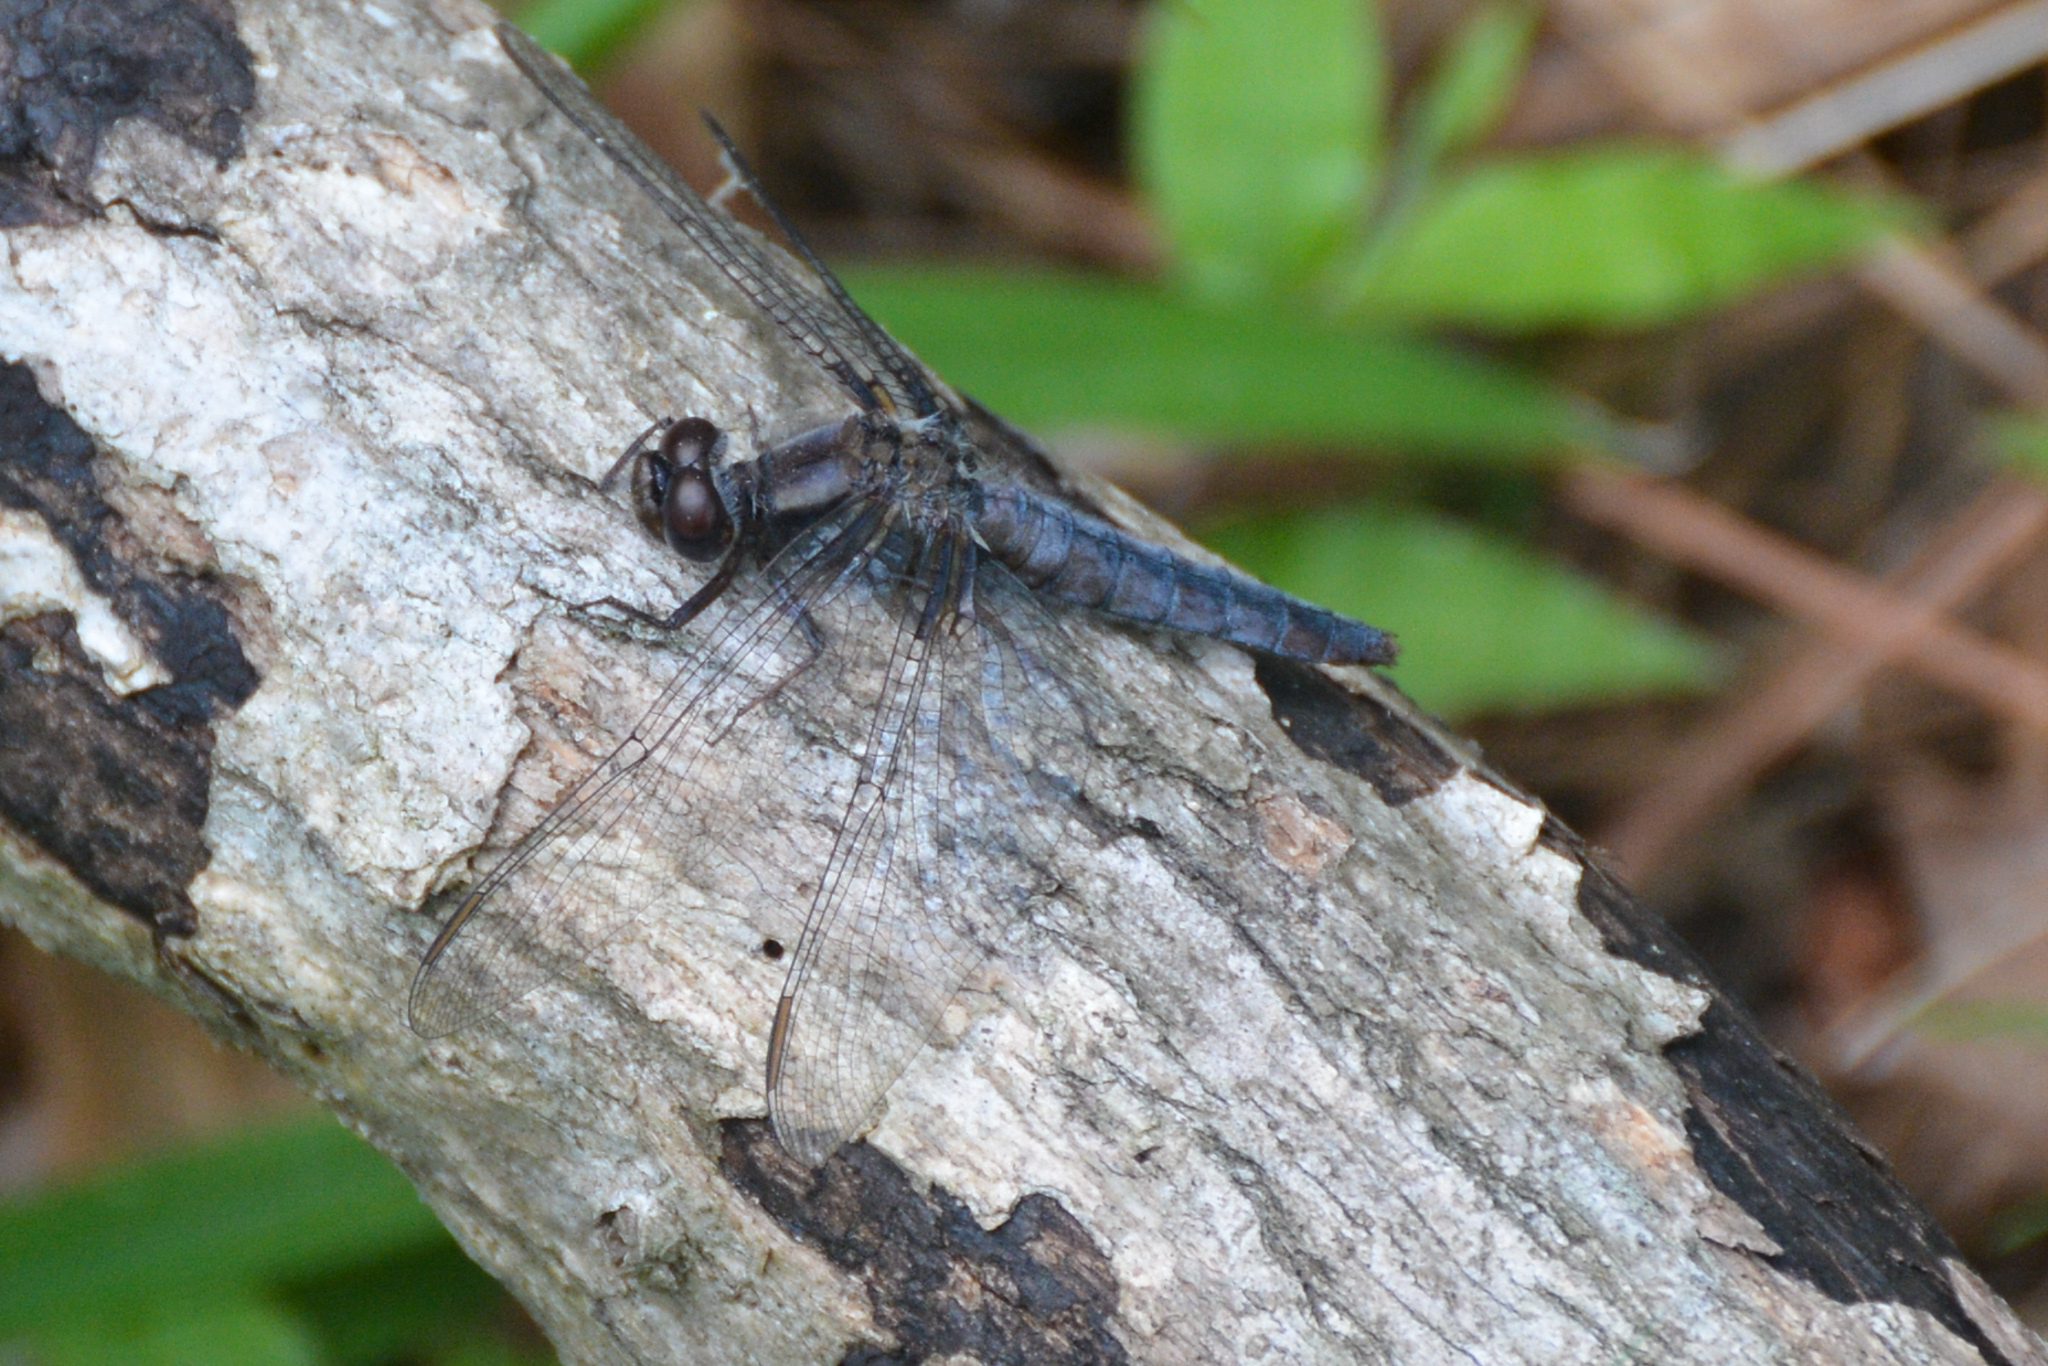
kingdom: Animalia
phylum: Arthropoda
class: Insecta
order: Odonata
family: Libellulidae
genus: Ladona
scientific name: Ladona deplanata
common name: Blue corporal
